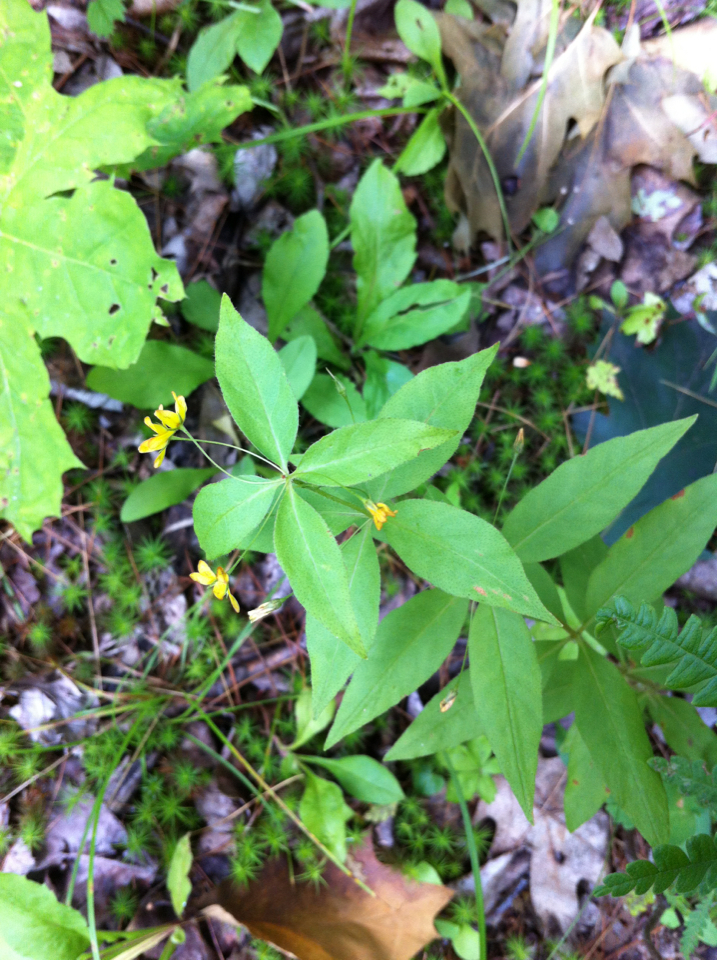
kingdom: Plantae
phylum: Tracheophyta
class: Magnoliopsida
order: Ericales
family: Primulaceae
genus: Lysimachia
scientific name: Lysimachia quadrifolia
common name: Whorled loosestrife
